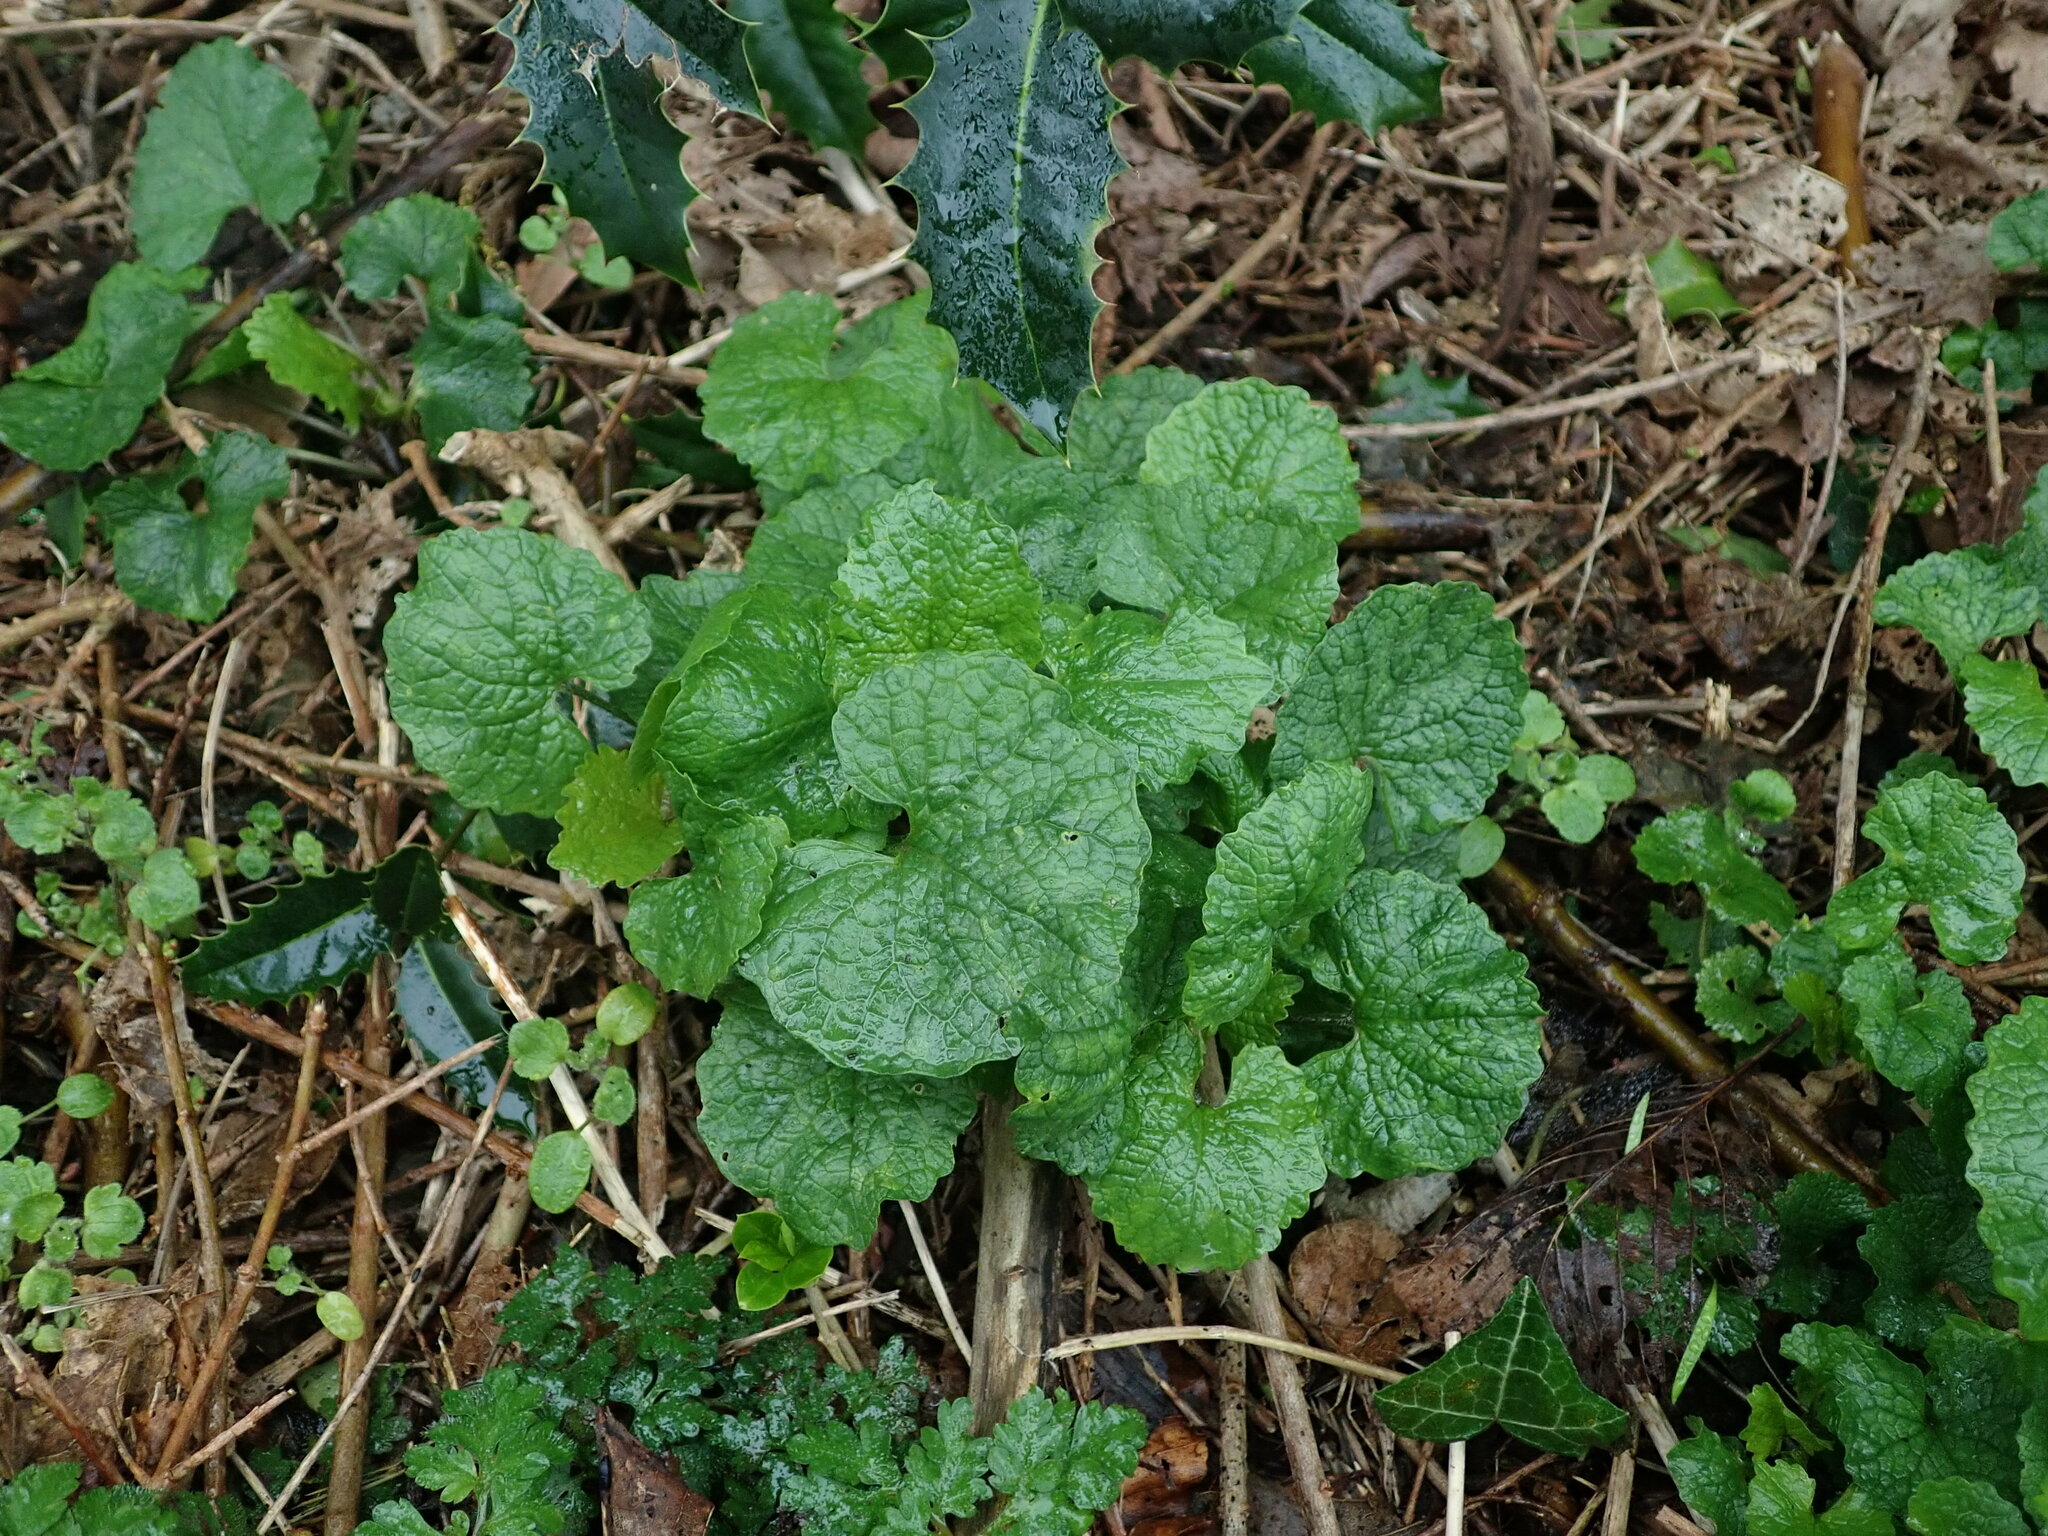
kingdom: Plantae
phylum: Tracheophyta
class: Magnoliopsida
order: Brassicales
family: Brassicaceae
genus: Alliaria
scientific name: Alliaria petiolata
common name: Garlic mustard
